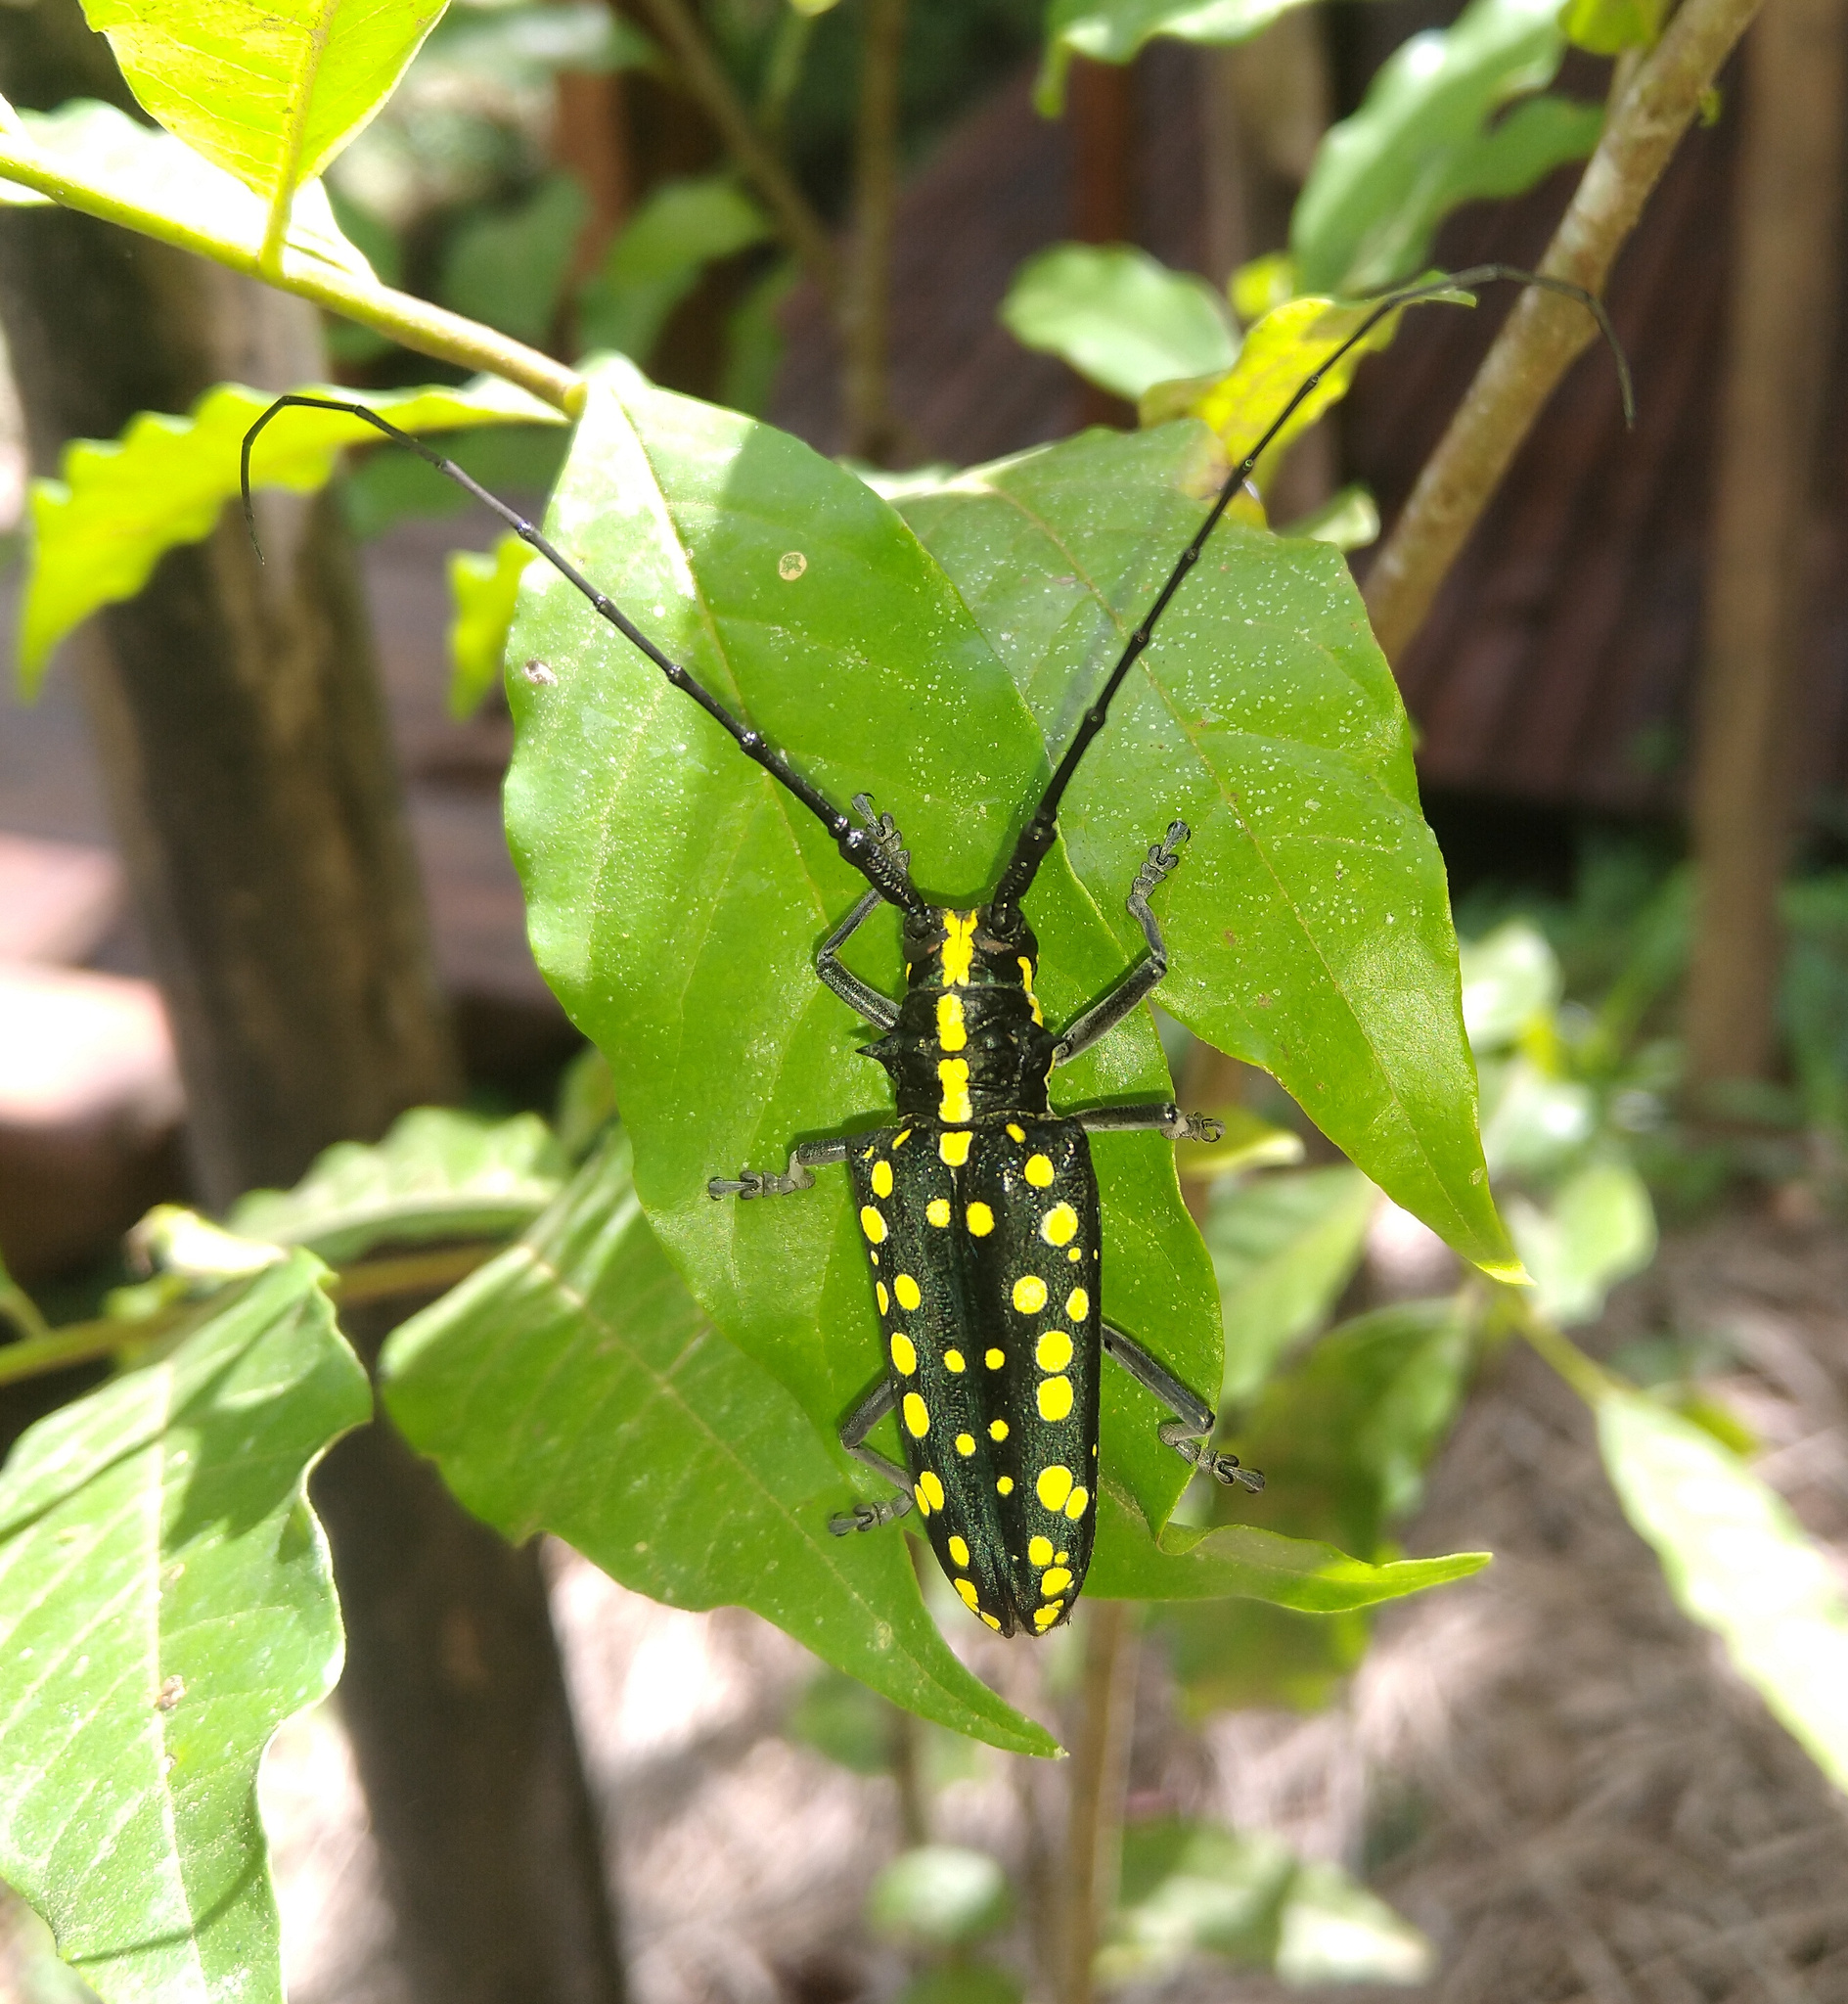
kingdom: Animalia
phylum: Arthropoda
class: Insecta
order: Coleoptera
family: Cerambycidae
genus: Taeniotes
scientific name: Taeniotes farinosus
